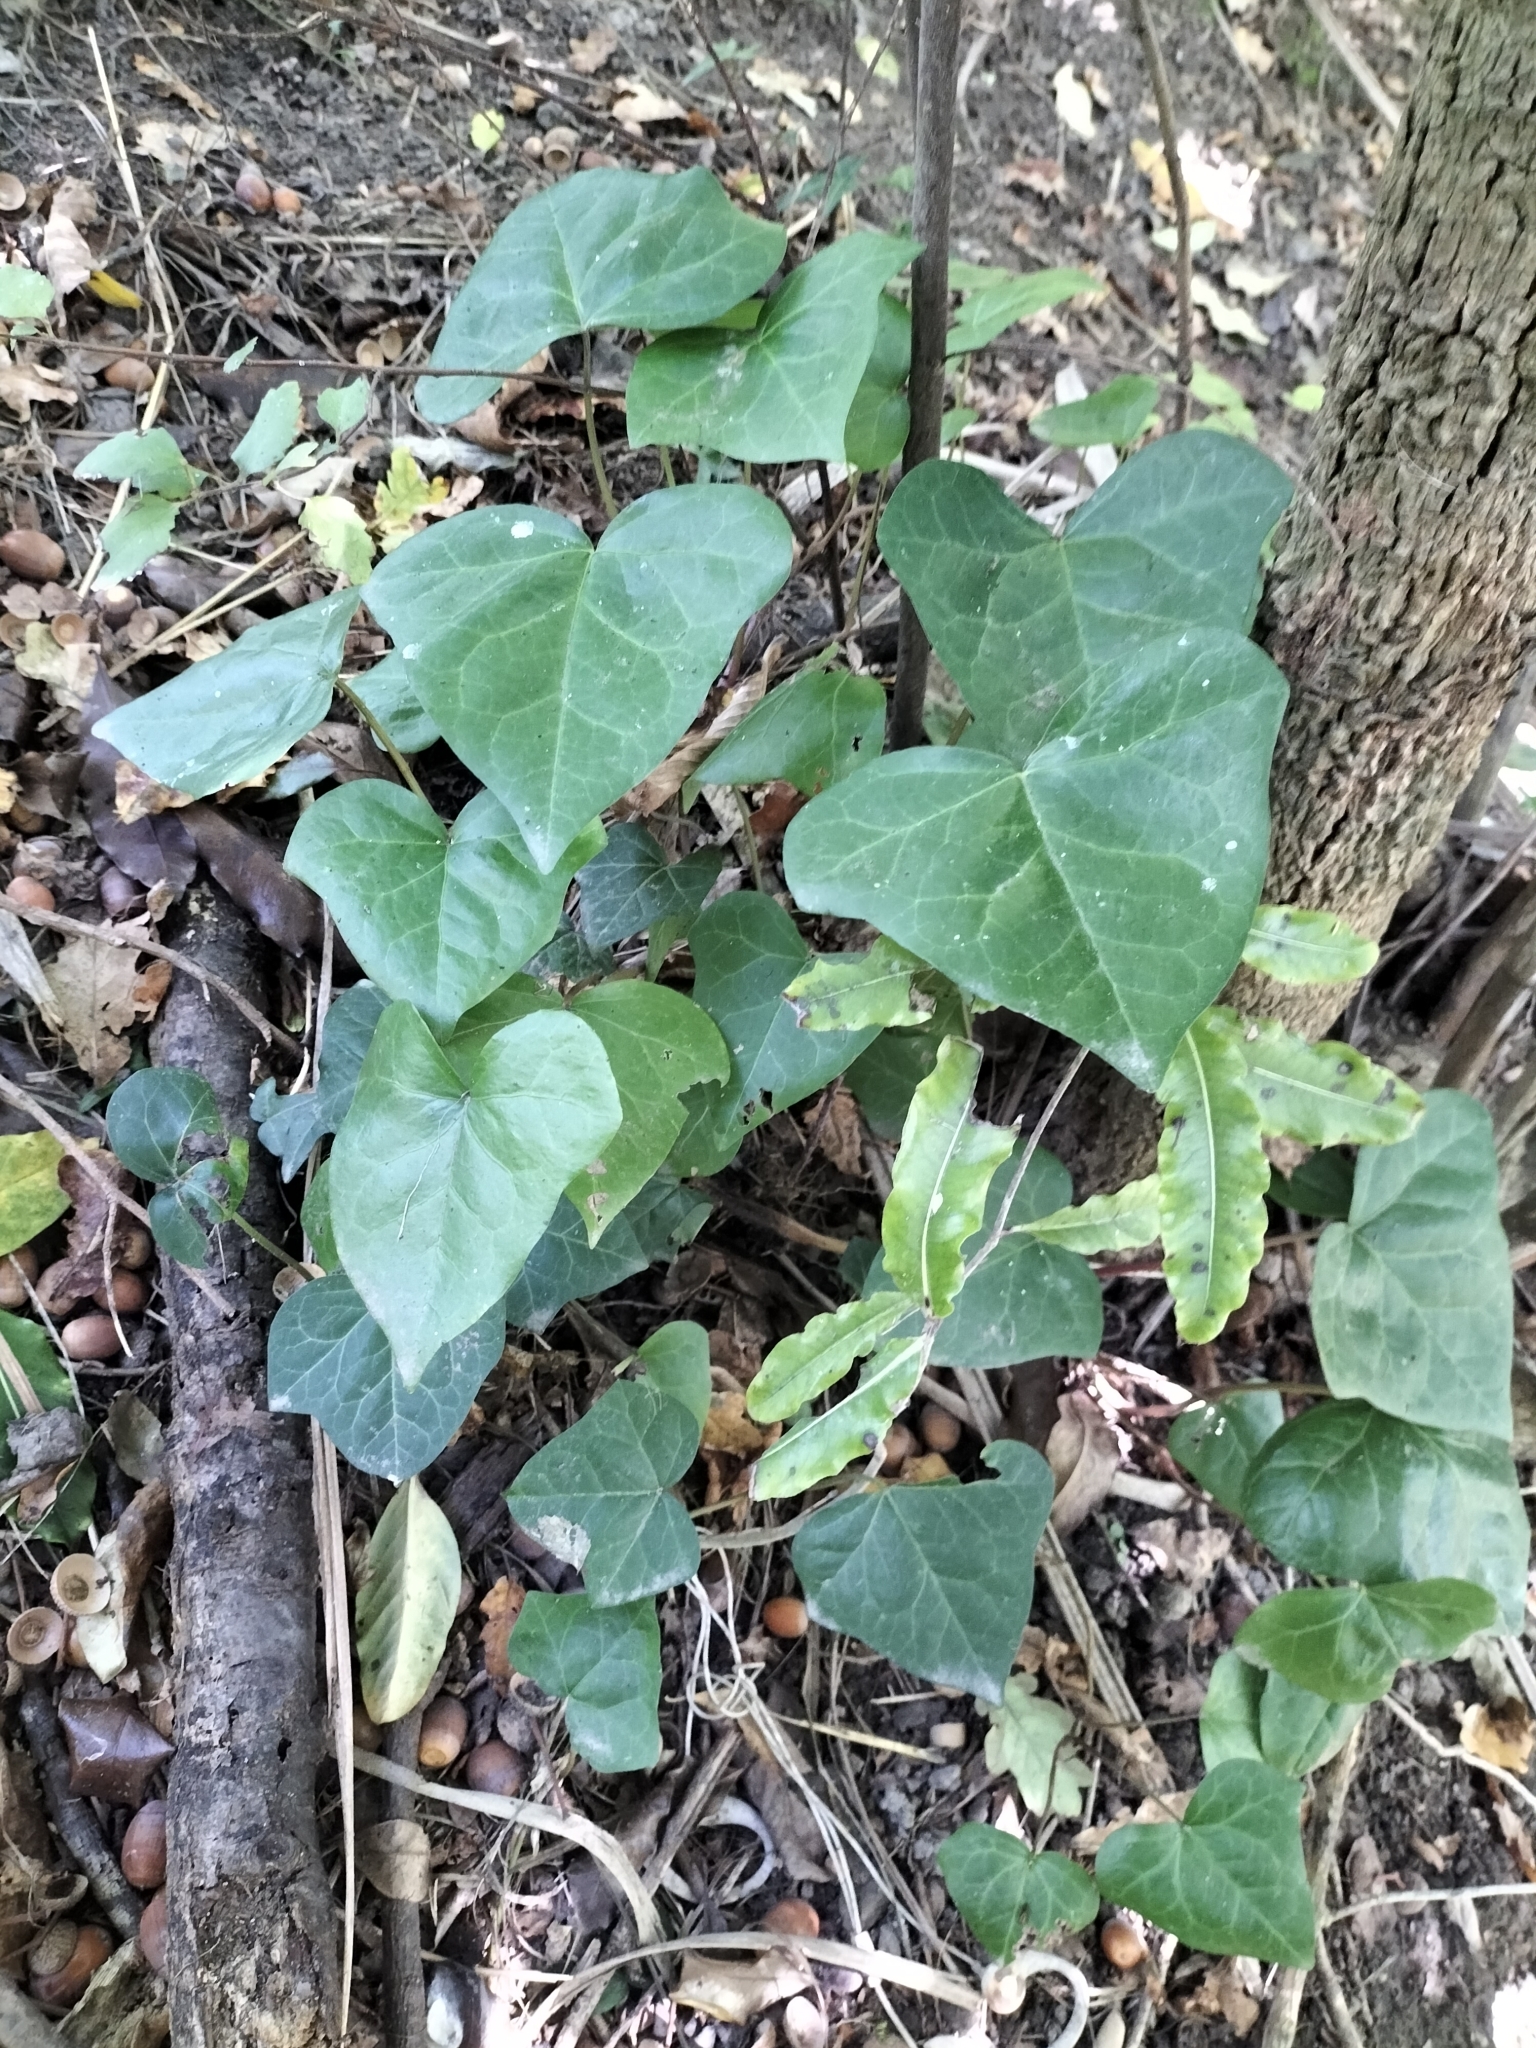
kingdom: Plantae
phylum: Tracheophyta
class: Magnoliopsida
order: Apiales
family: Araliaceae
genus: Hedera
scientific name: Hedera helix
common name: Ivy
